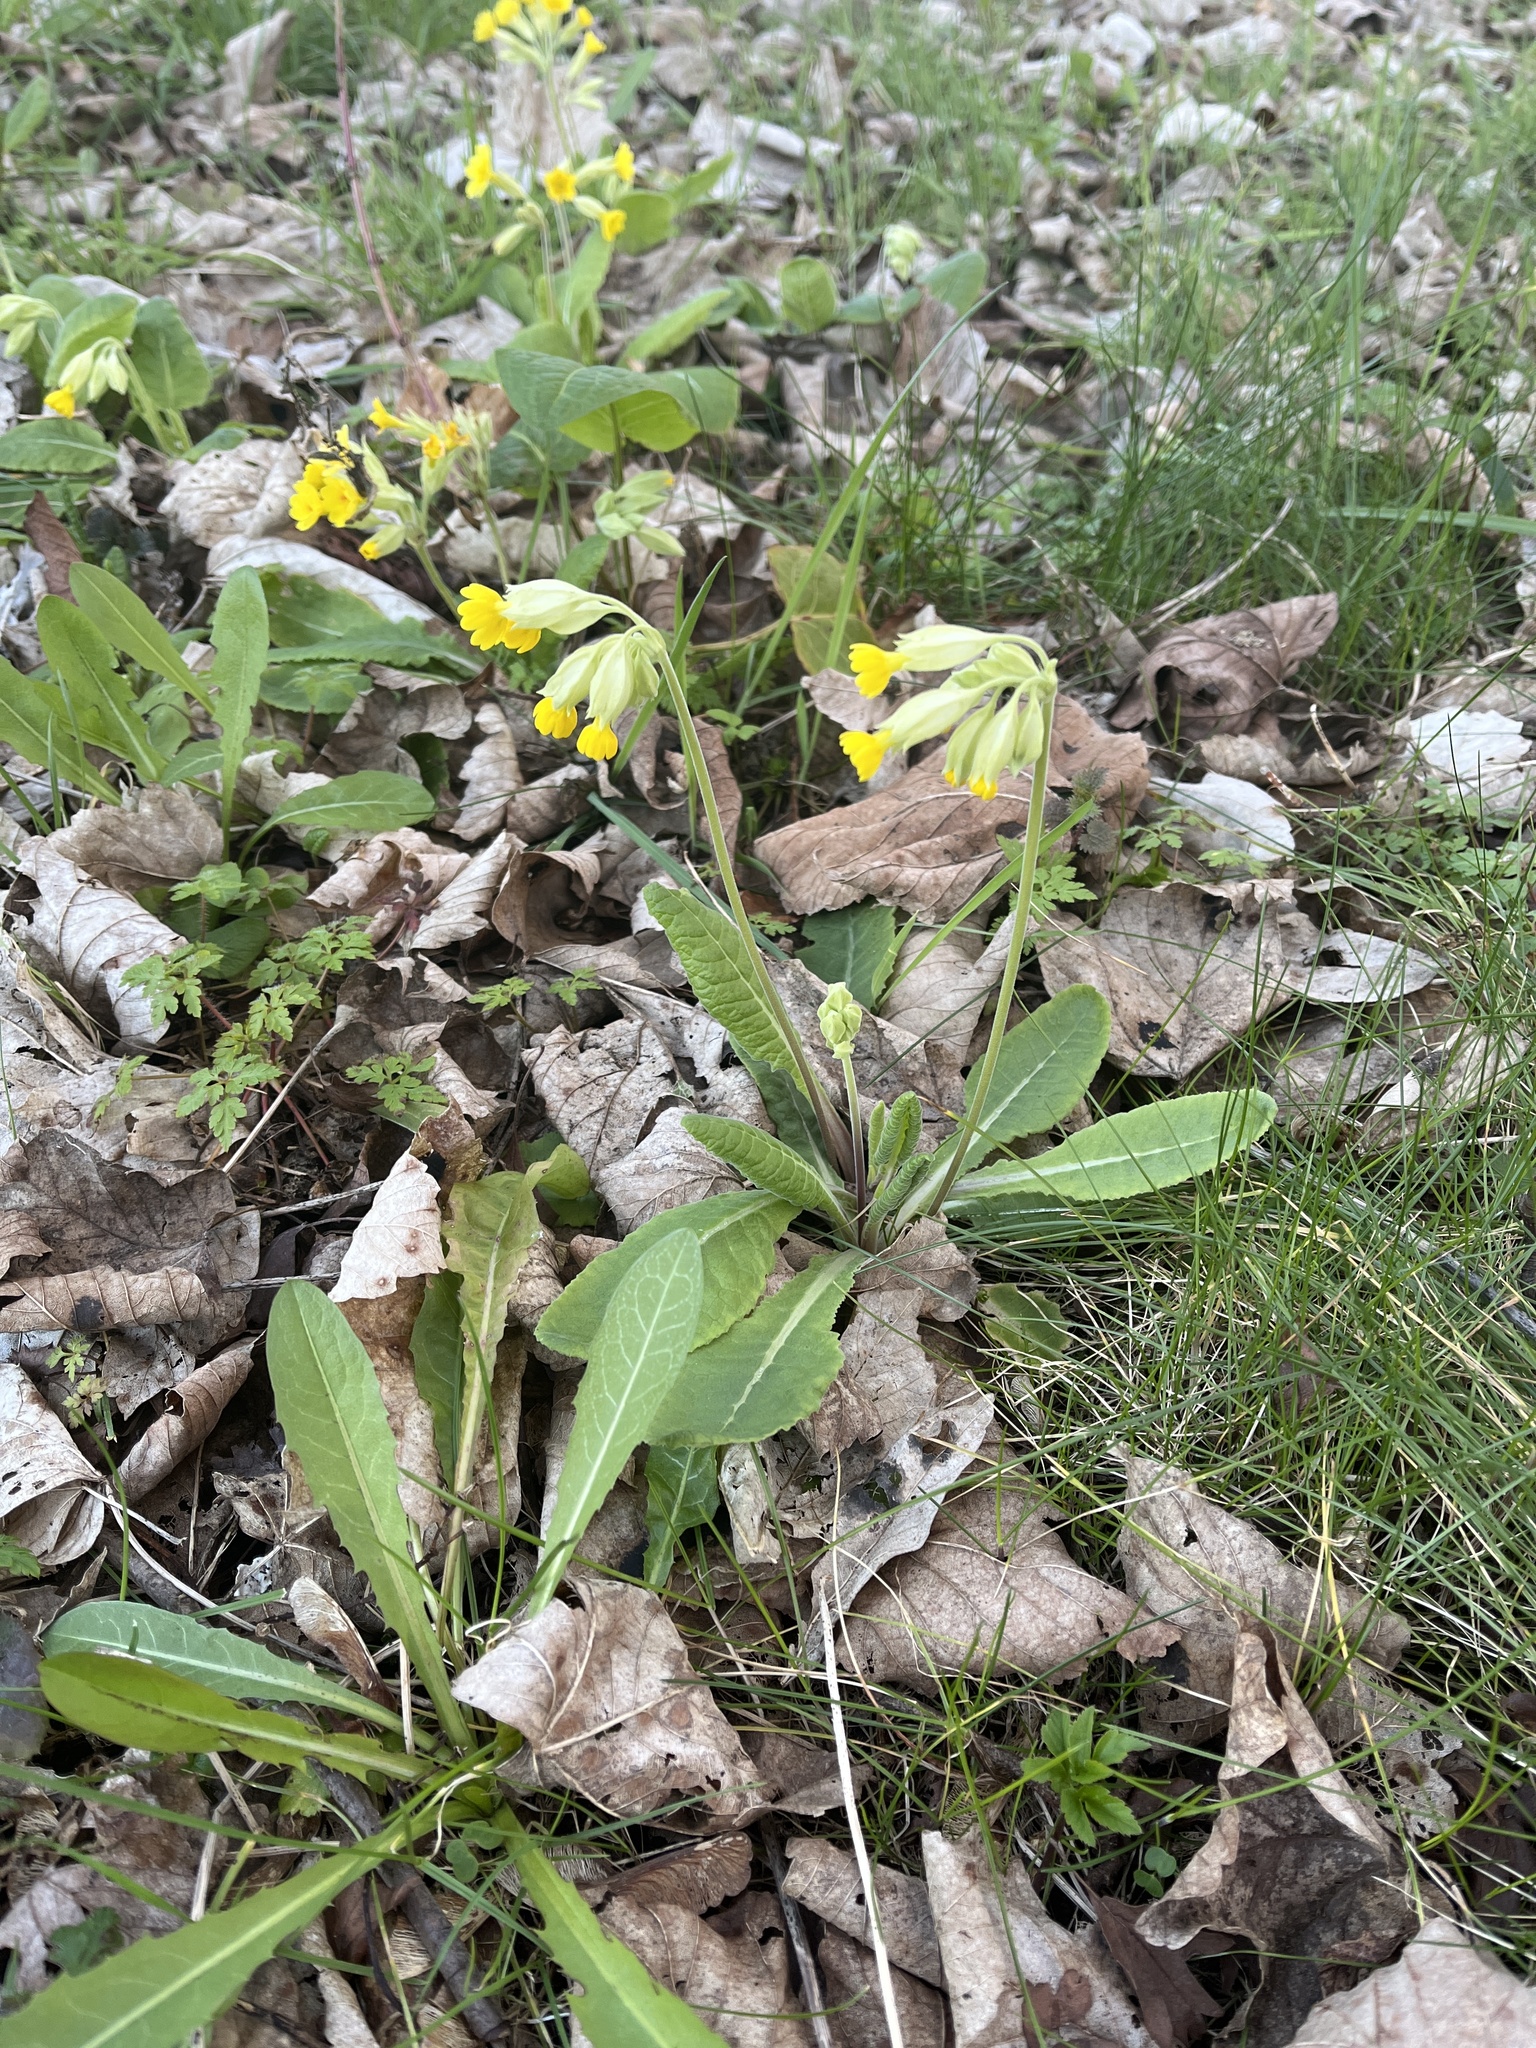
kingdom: Plantae
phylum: Tracheophyta
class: Magnoliopsida
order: Ericales
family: Primulaceae
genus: Primula
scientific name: Primula veris
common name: Cowslip
